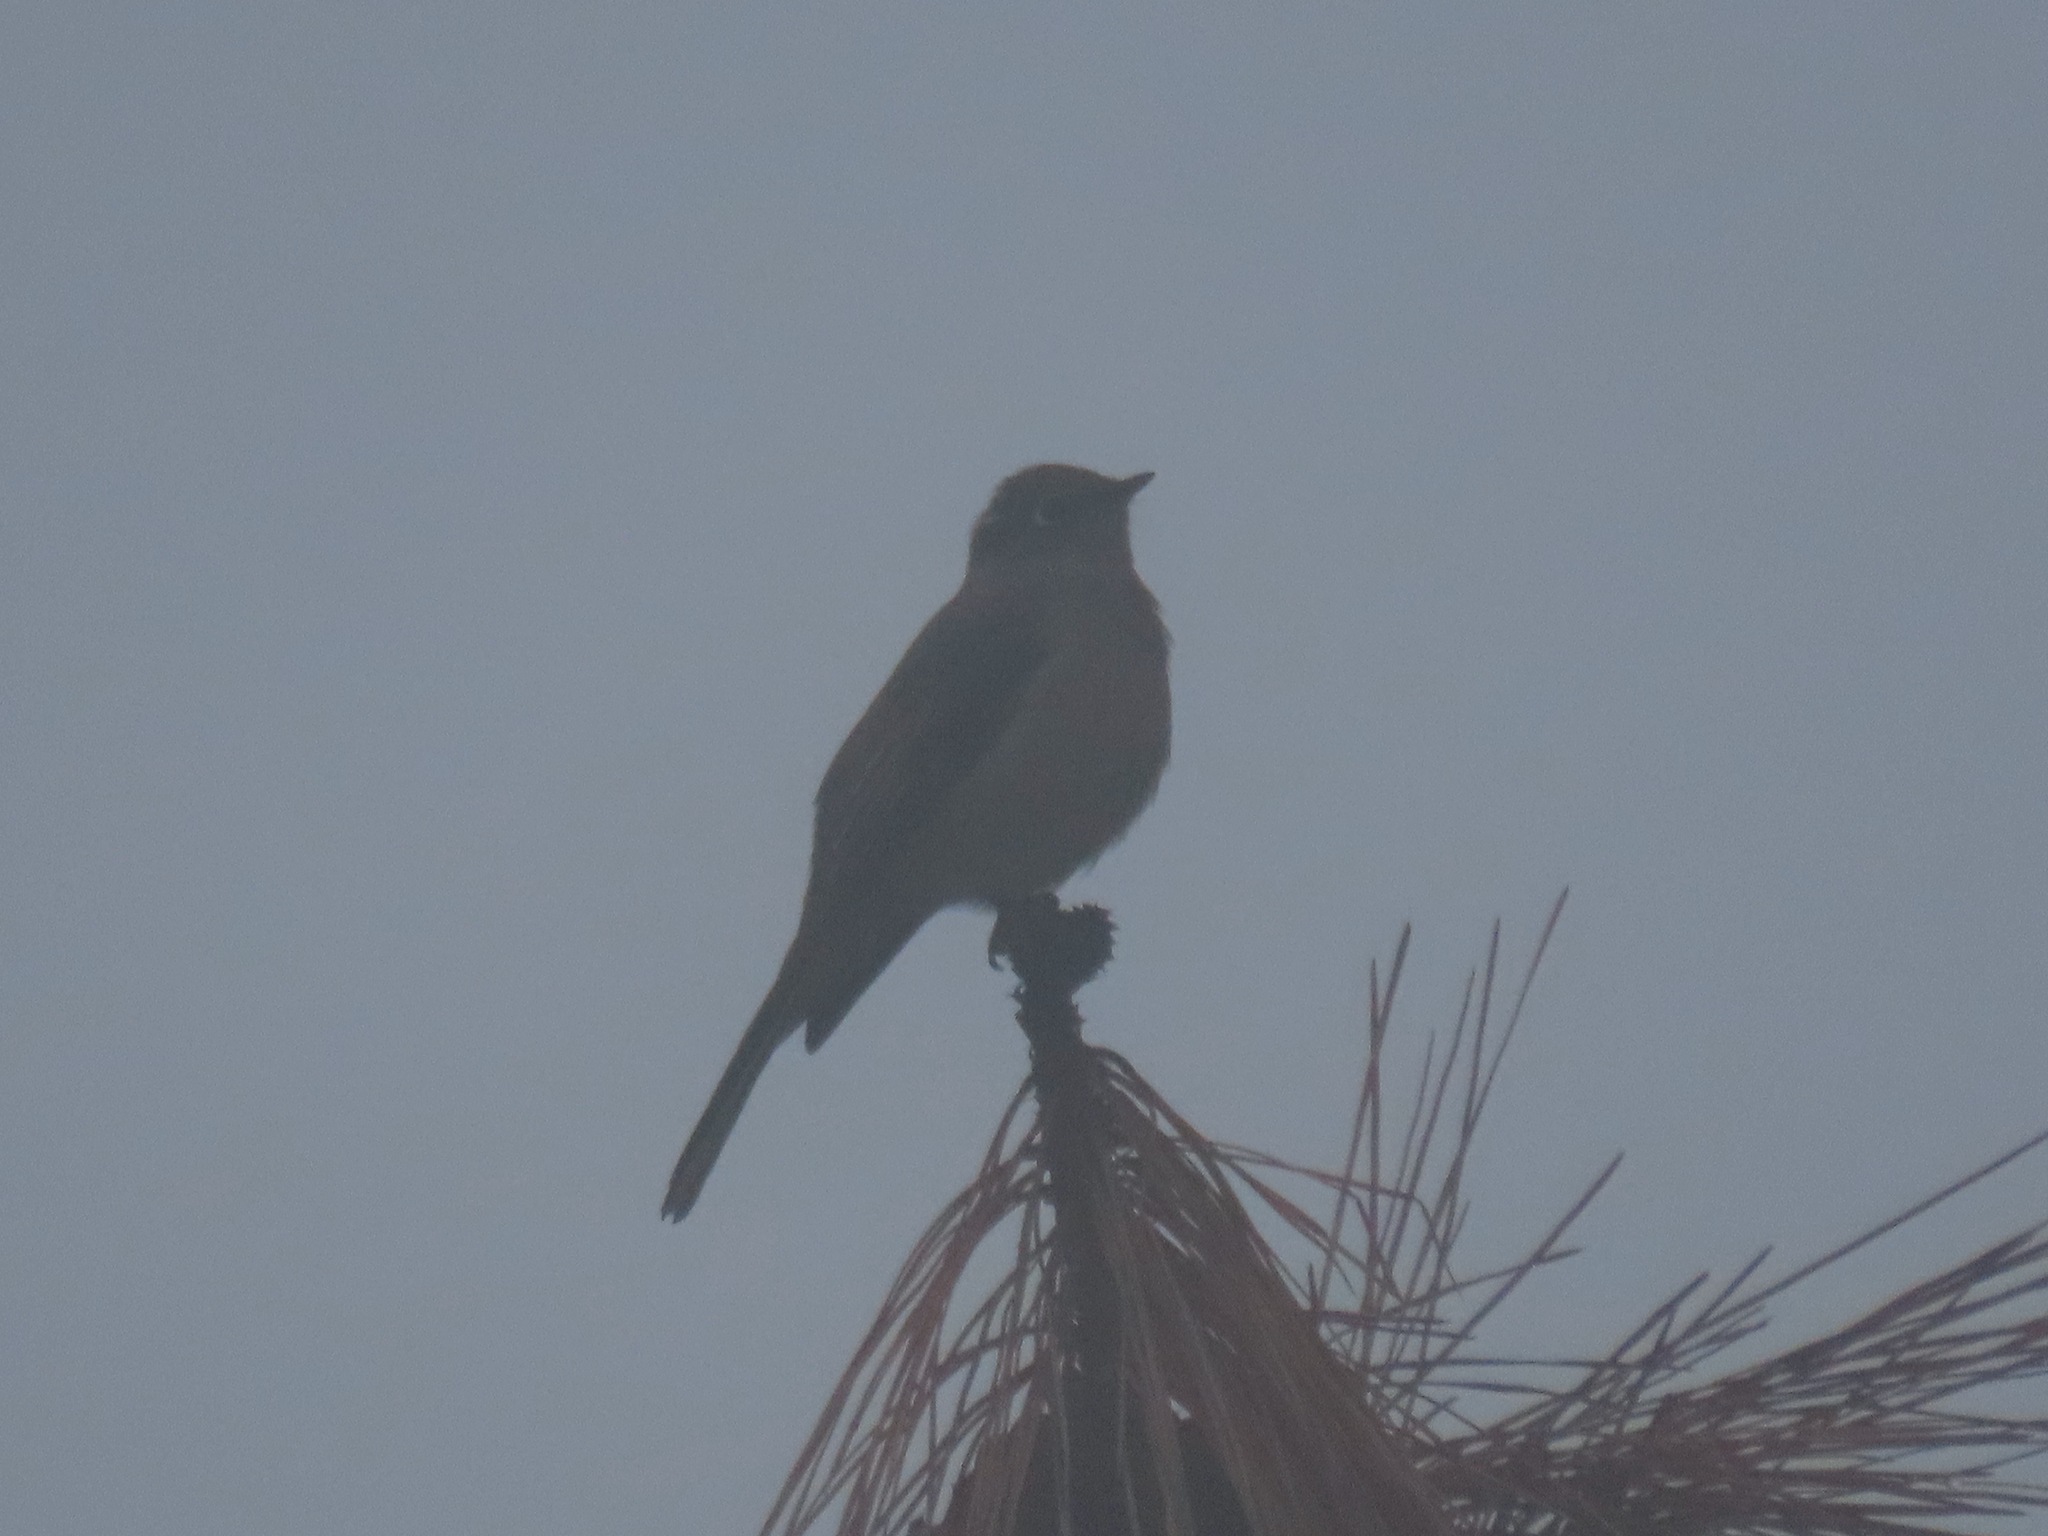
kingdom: Animalia
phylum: Chordata
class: Aves
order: Passeriformes
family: Turdidae
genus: Myadestes
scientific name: Myadestes townsendi
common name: Townsend's solitaire
